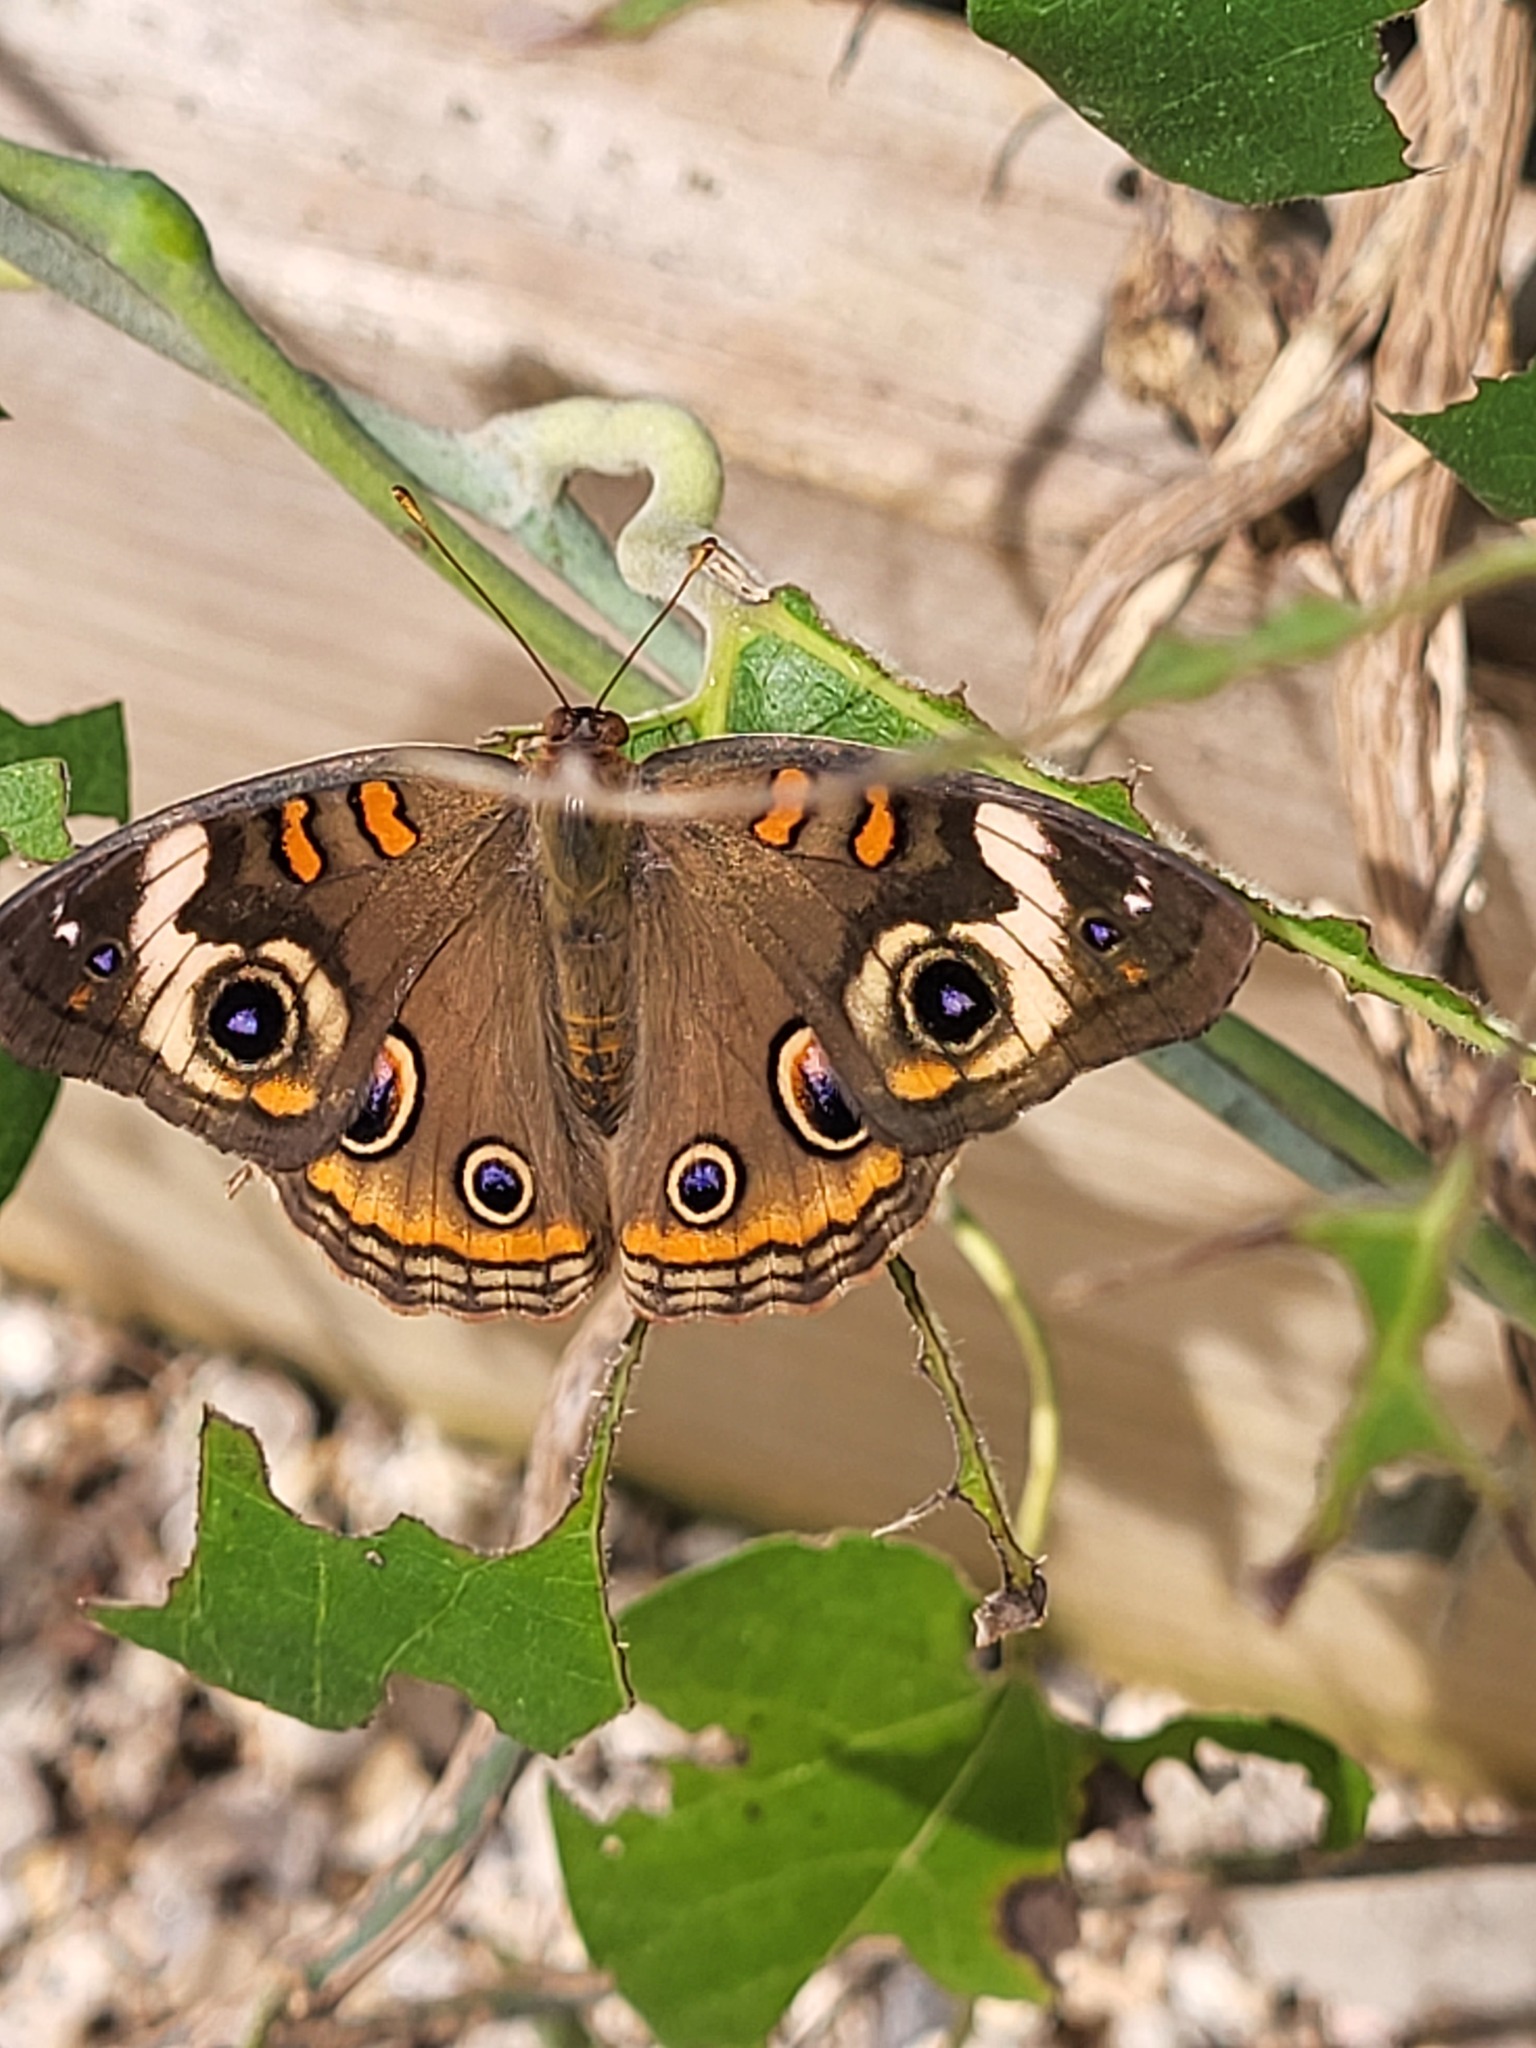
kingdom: Animalia
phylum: Arthropoda
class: Insecta
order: Lepidoptera
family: Nymphalidae
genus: Junonia
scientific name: Junonia coenia
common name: Common buckeye
